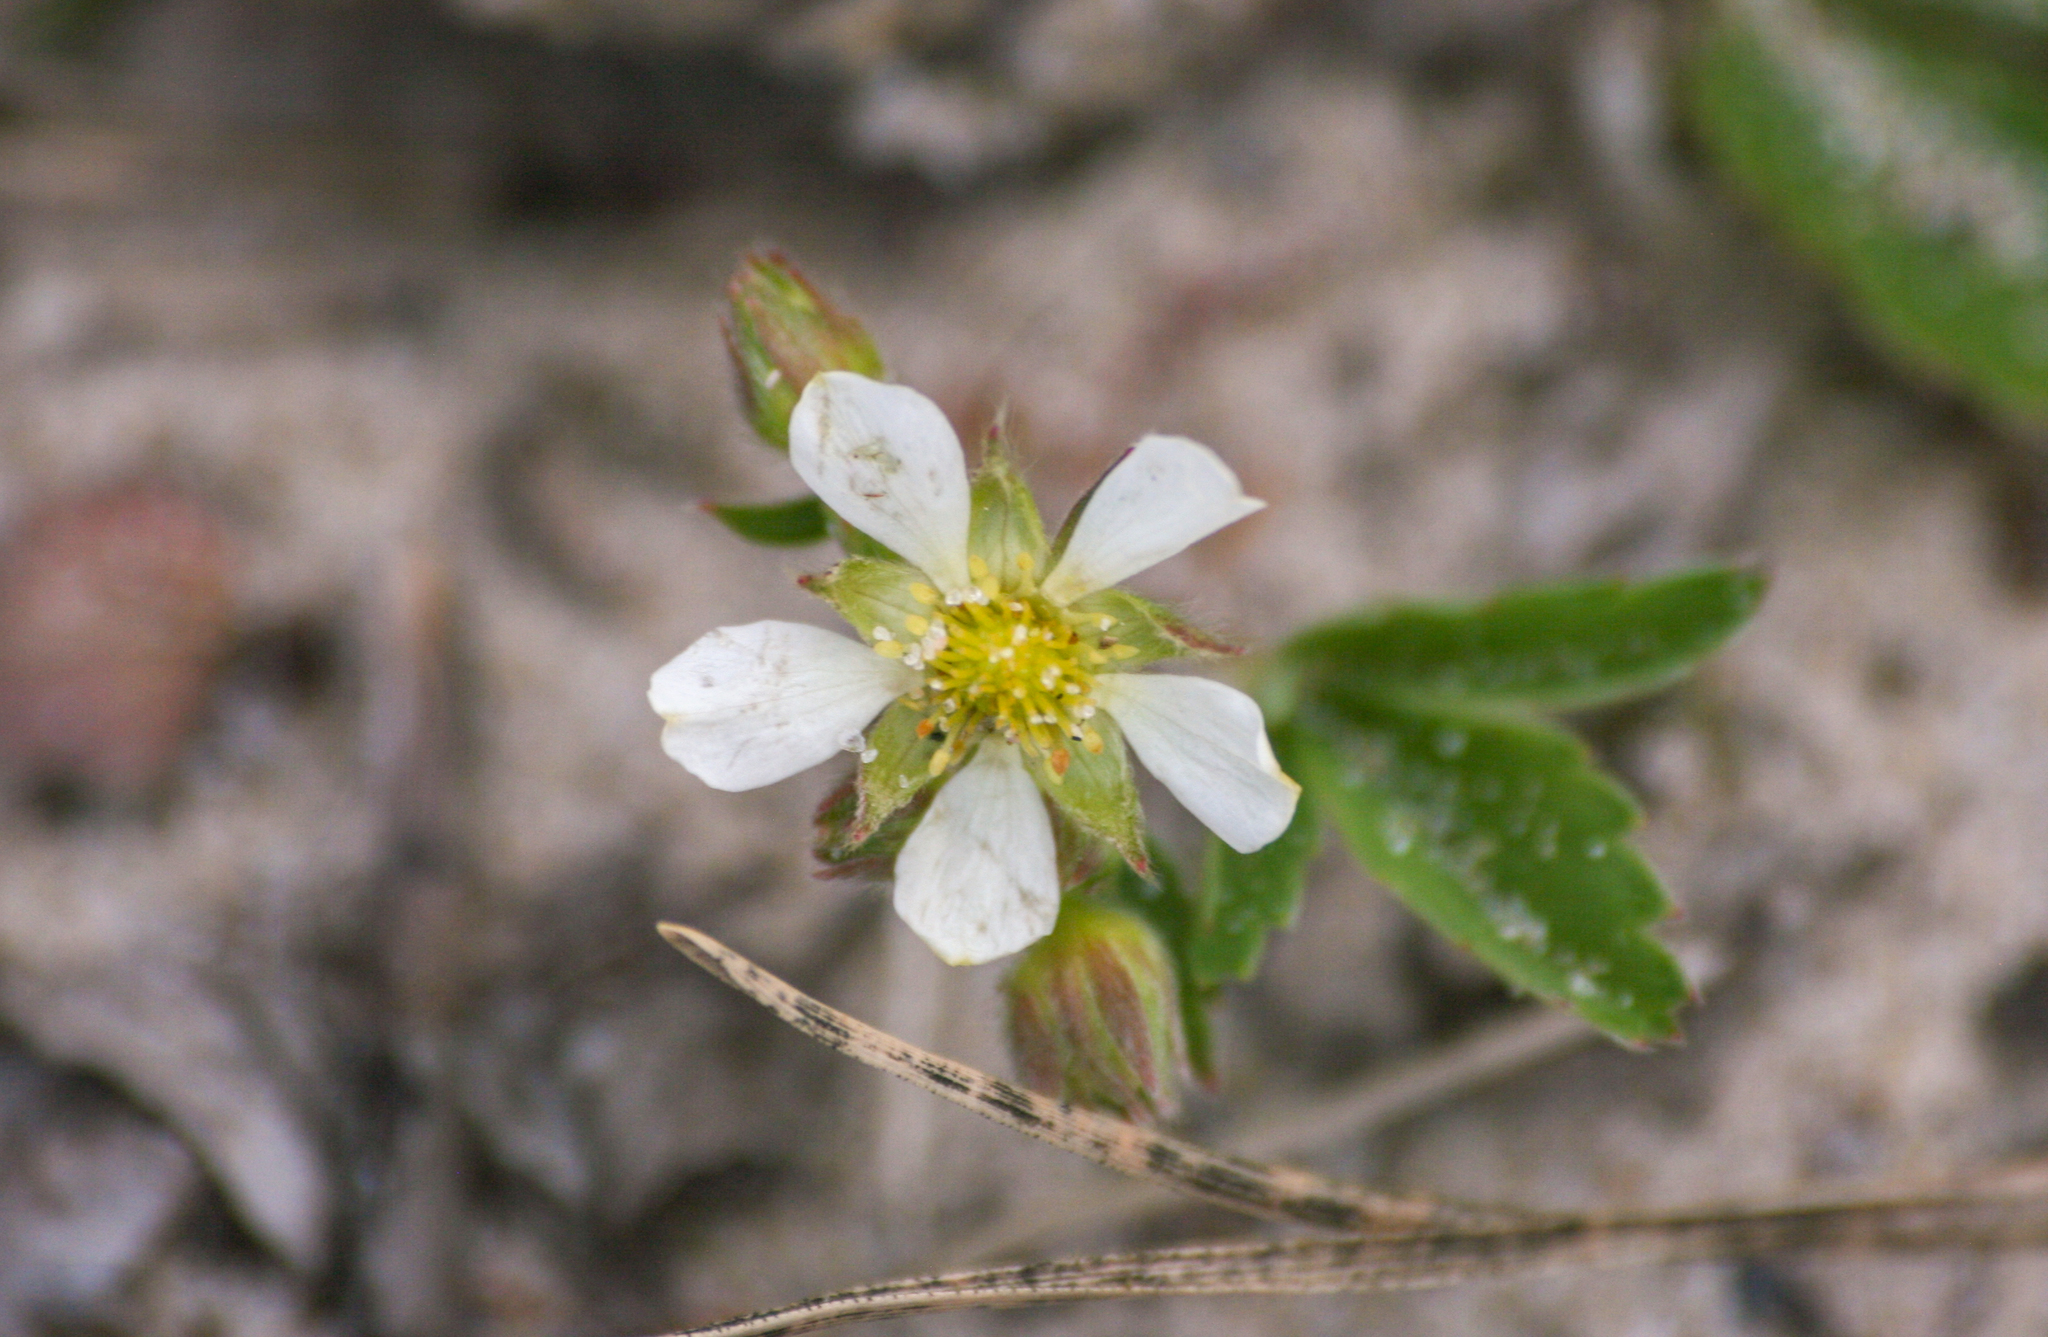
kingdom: Plantae
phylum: Tracheophyta
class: Magnoliopsida
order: Rosales
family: Rosaceae
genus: Fragaria
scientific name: Fragaria virginiana
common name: Thickleaved wild strawberry
